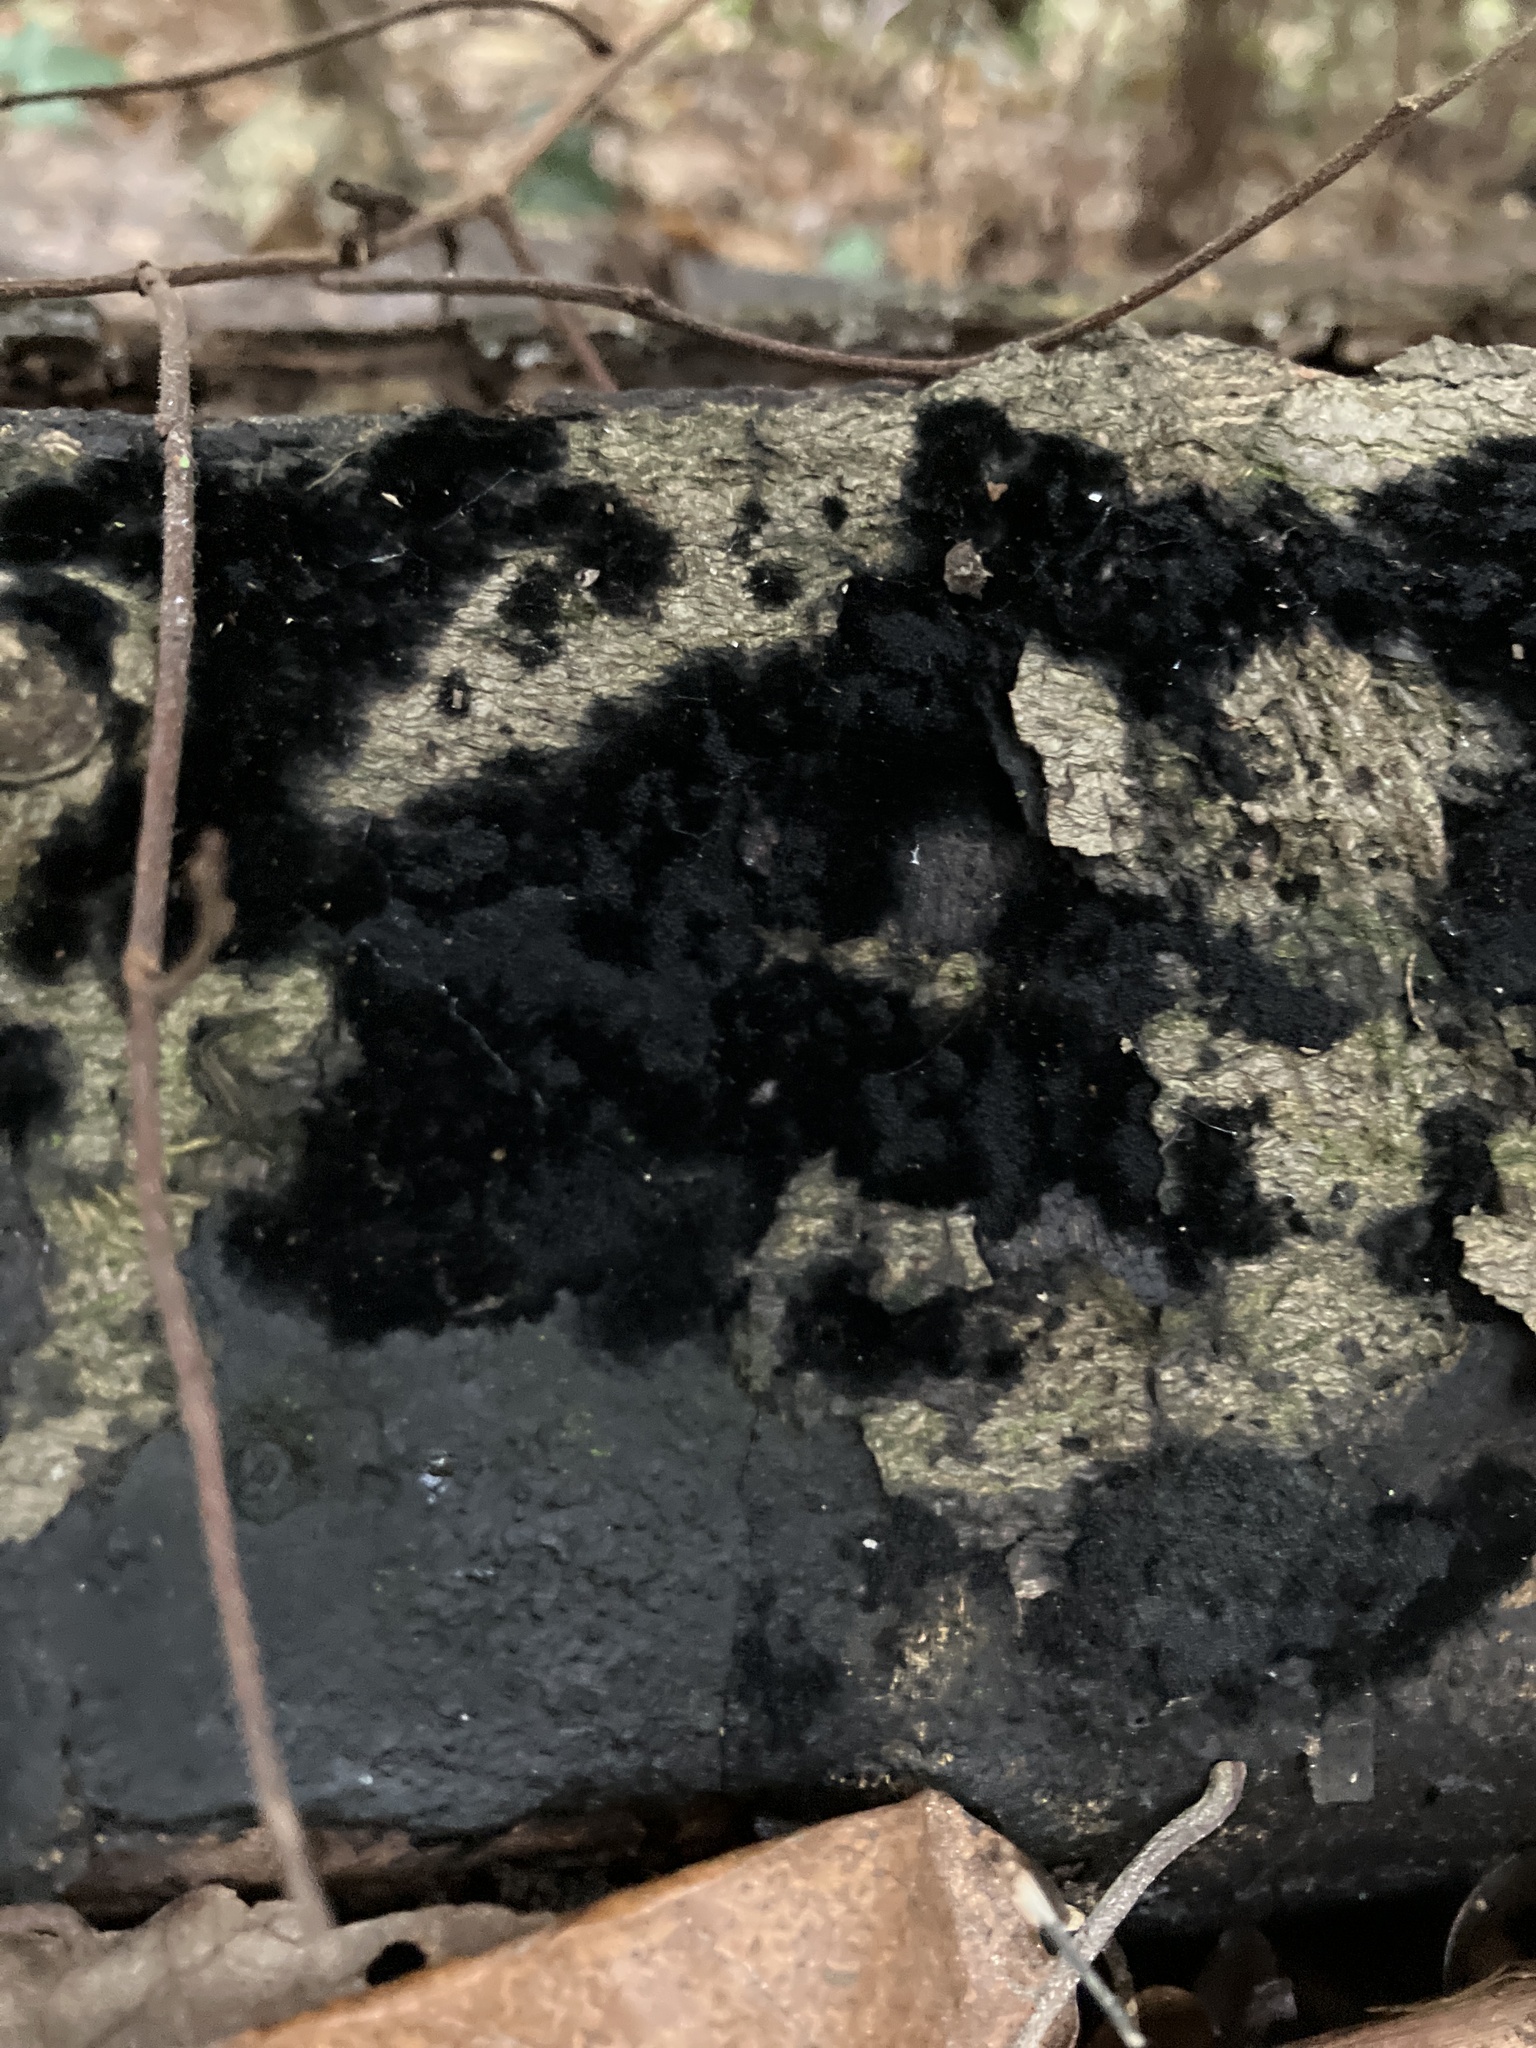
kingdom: Fungi
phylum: Ascomycota
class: Sordariomycetes
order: Coronophorales
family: Chaetosphaerellaceae
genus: Chaetosphaerella
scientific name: Chaetosphaerella phaeostroma
